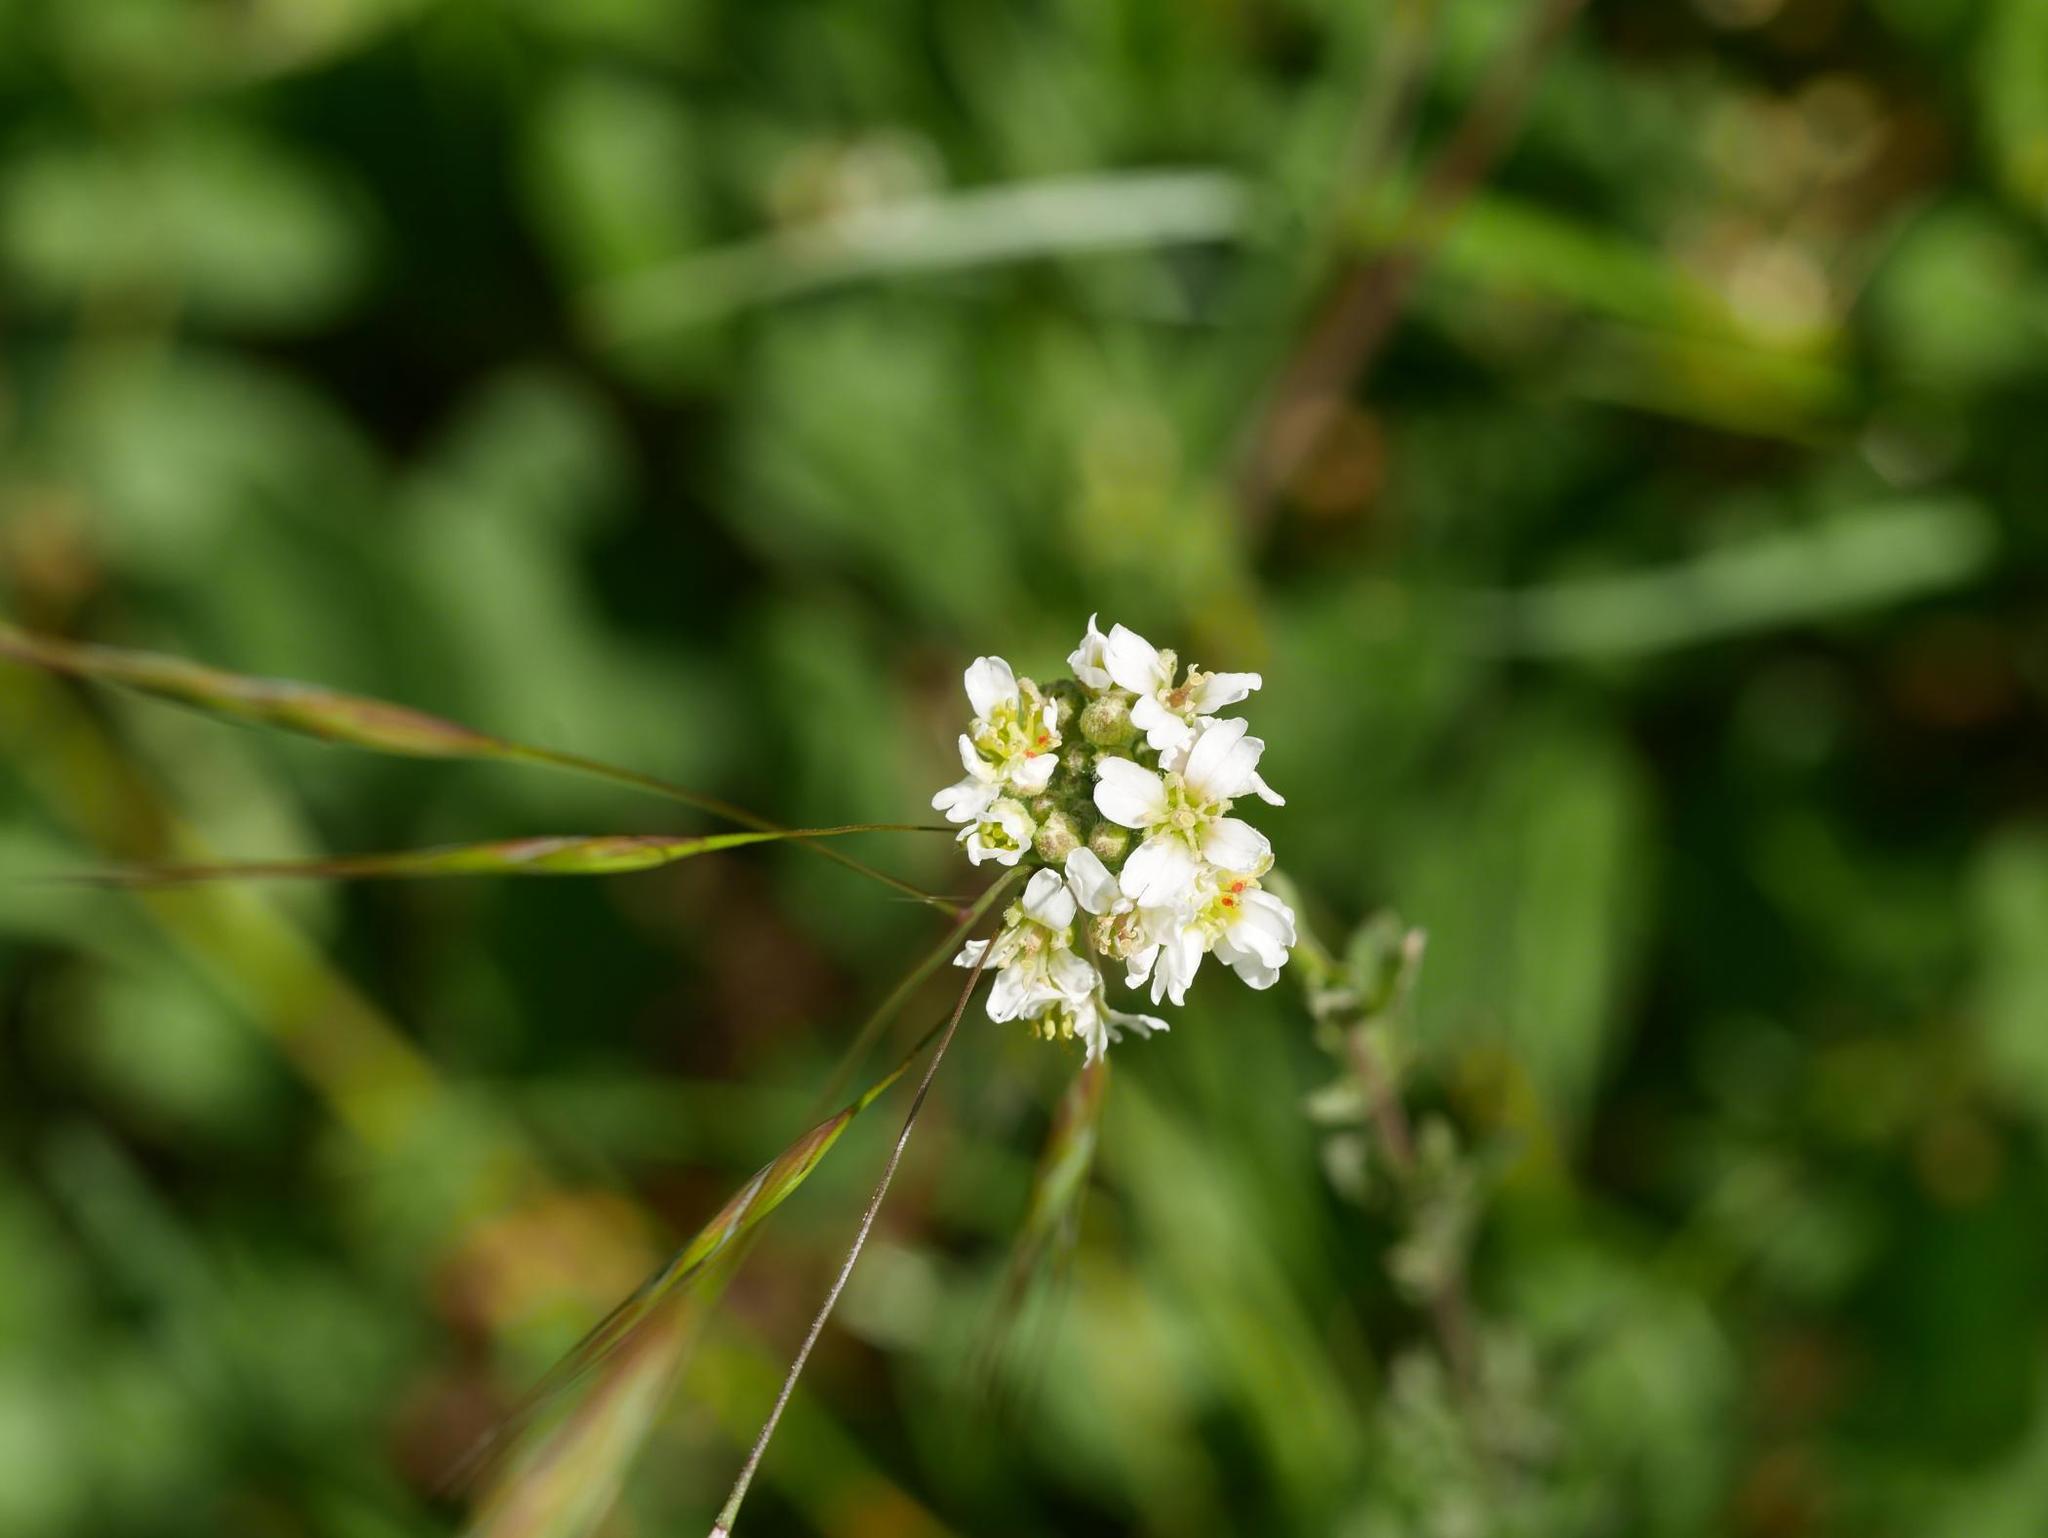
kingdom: Plantae
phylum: Tracheophyta
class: Magnoliopsida
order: Brassicales
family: Brassicaceae
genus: Berteroa
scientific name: Berteroa incana
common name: Hoary alison
